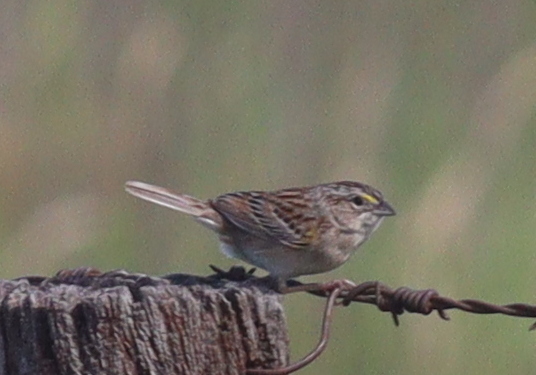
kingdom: Animalia
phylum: Chordata
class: Aves
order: Passeriformes
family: Passerellidae
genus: Ammodramus
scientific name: Ammodramus humeralis
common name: Grassland sparrow
